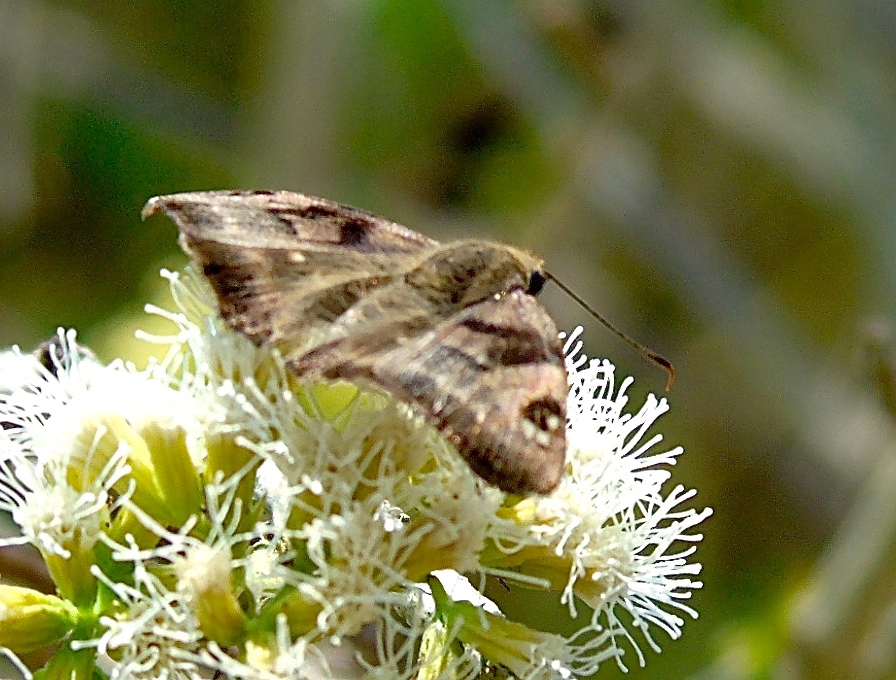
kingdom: Animalia
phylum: Arthropoda
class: Insecta
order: Lepidoptera
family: Hesperiidae
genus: Arteurotia
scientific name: Arteurotia tractipennis
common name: Starred skipper
